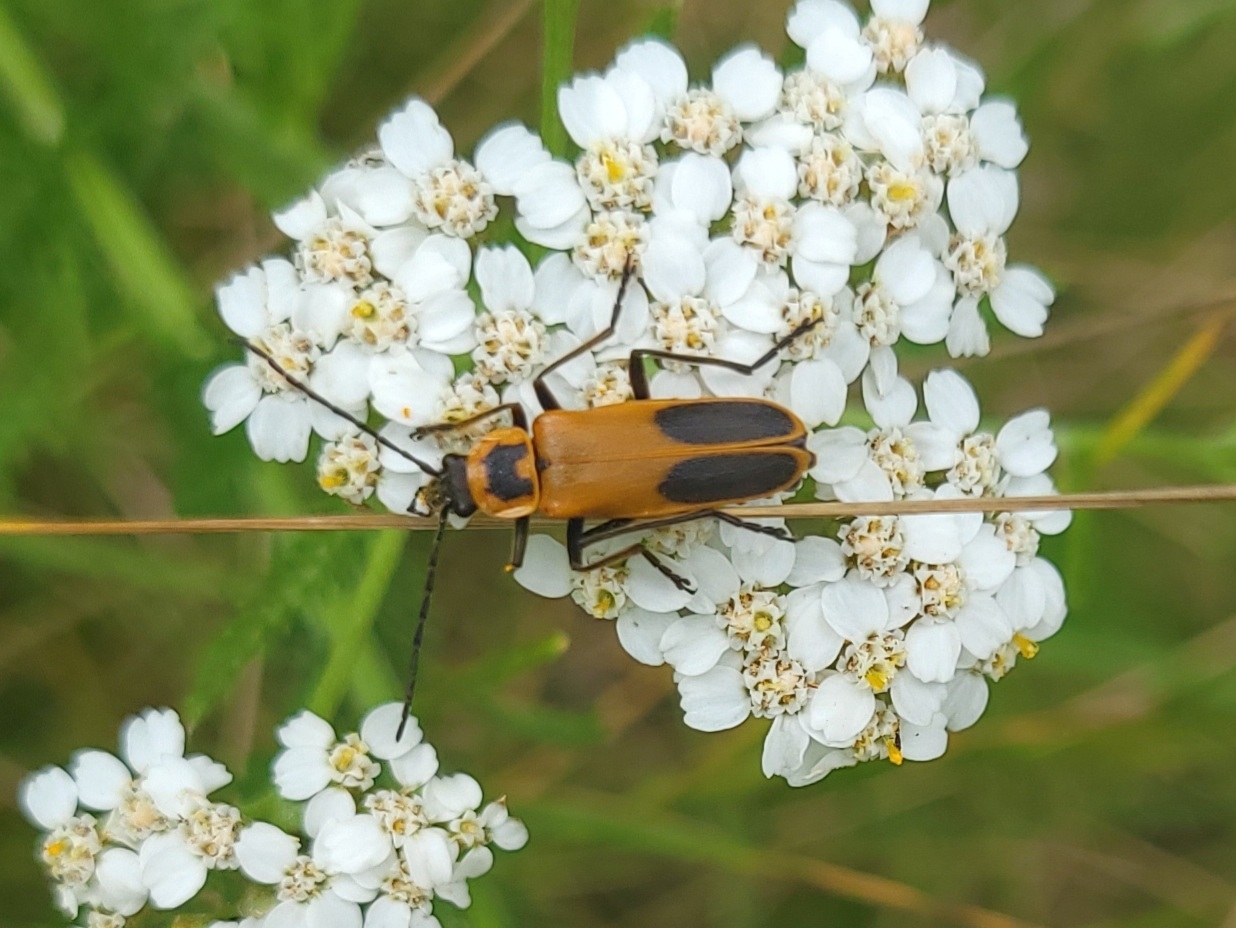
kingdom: Animalia
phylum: Arthropoda
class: Insecta
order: Coleoptera
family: Cantharidae
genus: Chauliognathus
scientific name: Chauliognathus pensylvanicus
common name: Goldenrod soldier beetle
